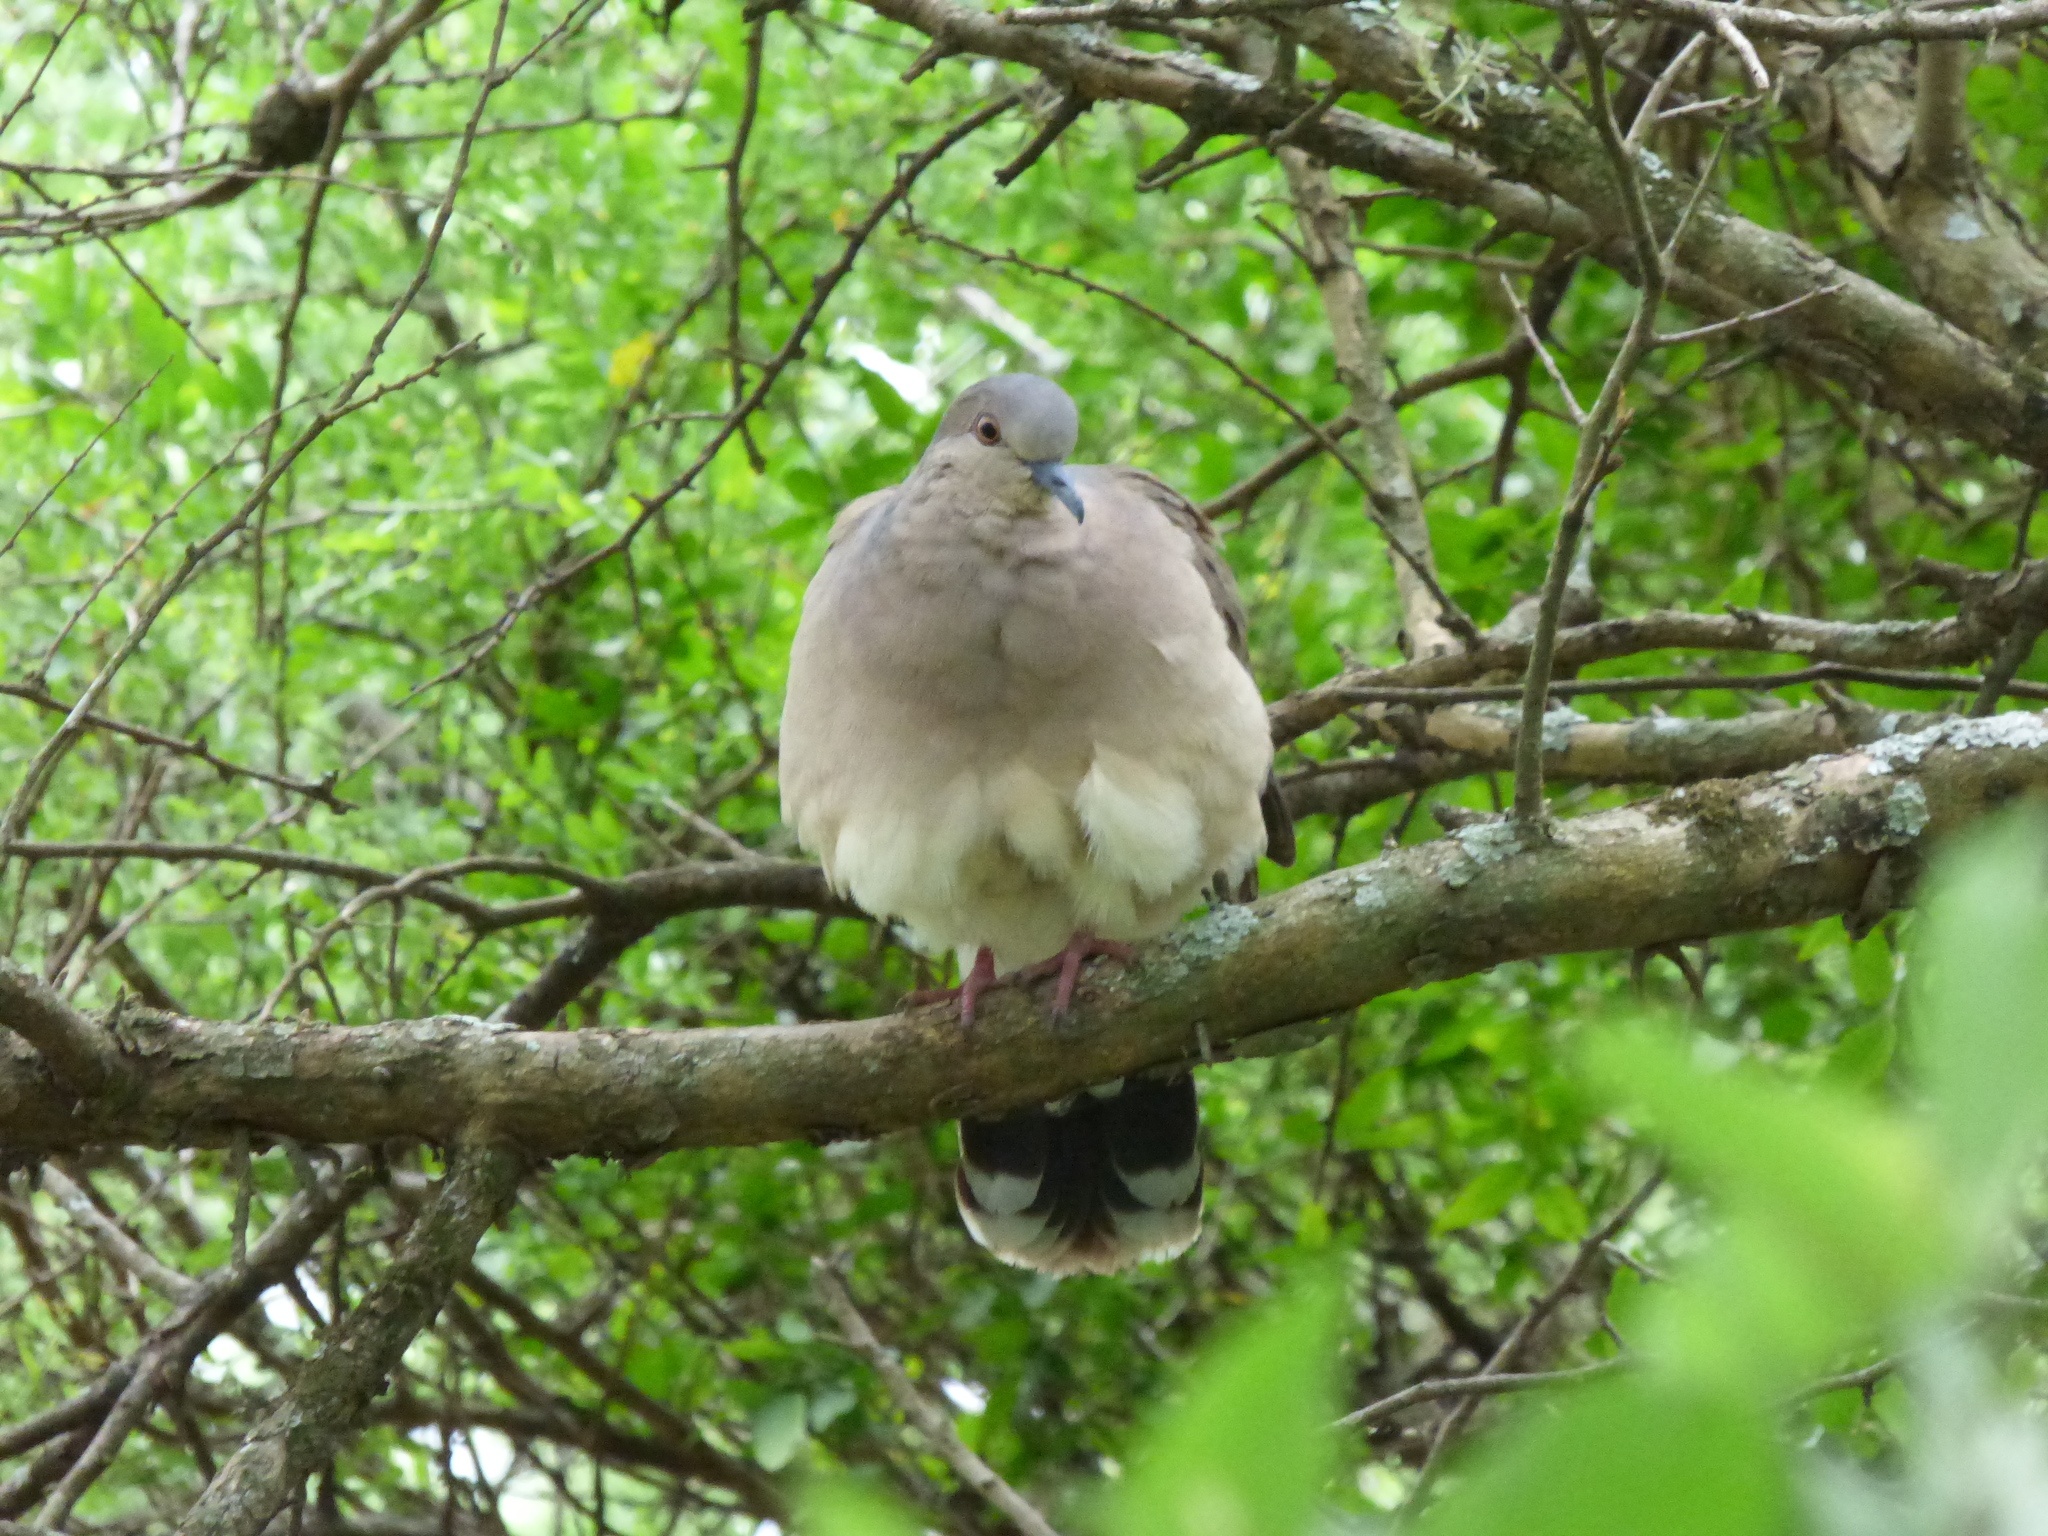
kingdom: Animalia
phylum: Chordata
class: Aves
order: Columbiformes
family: Columbidae
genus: Leptotila
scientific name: Leptotila verreauxi
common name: White-tipped dove
